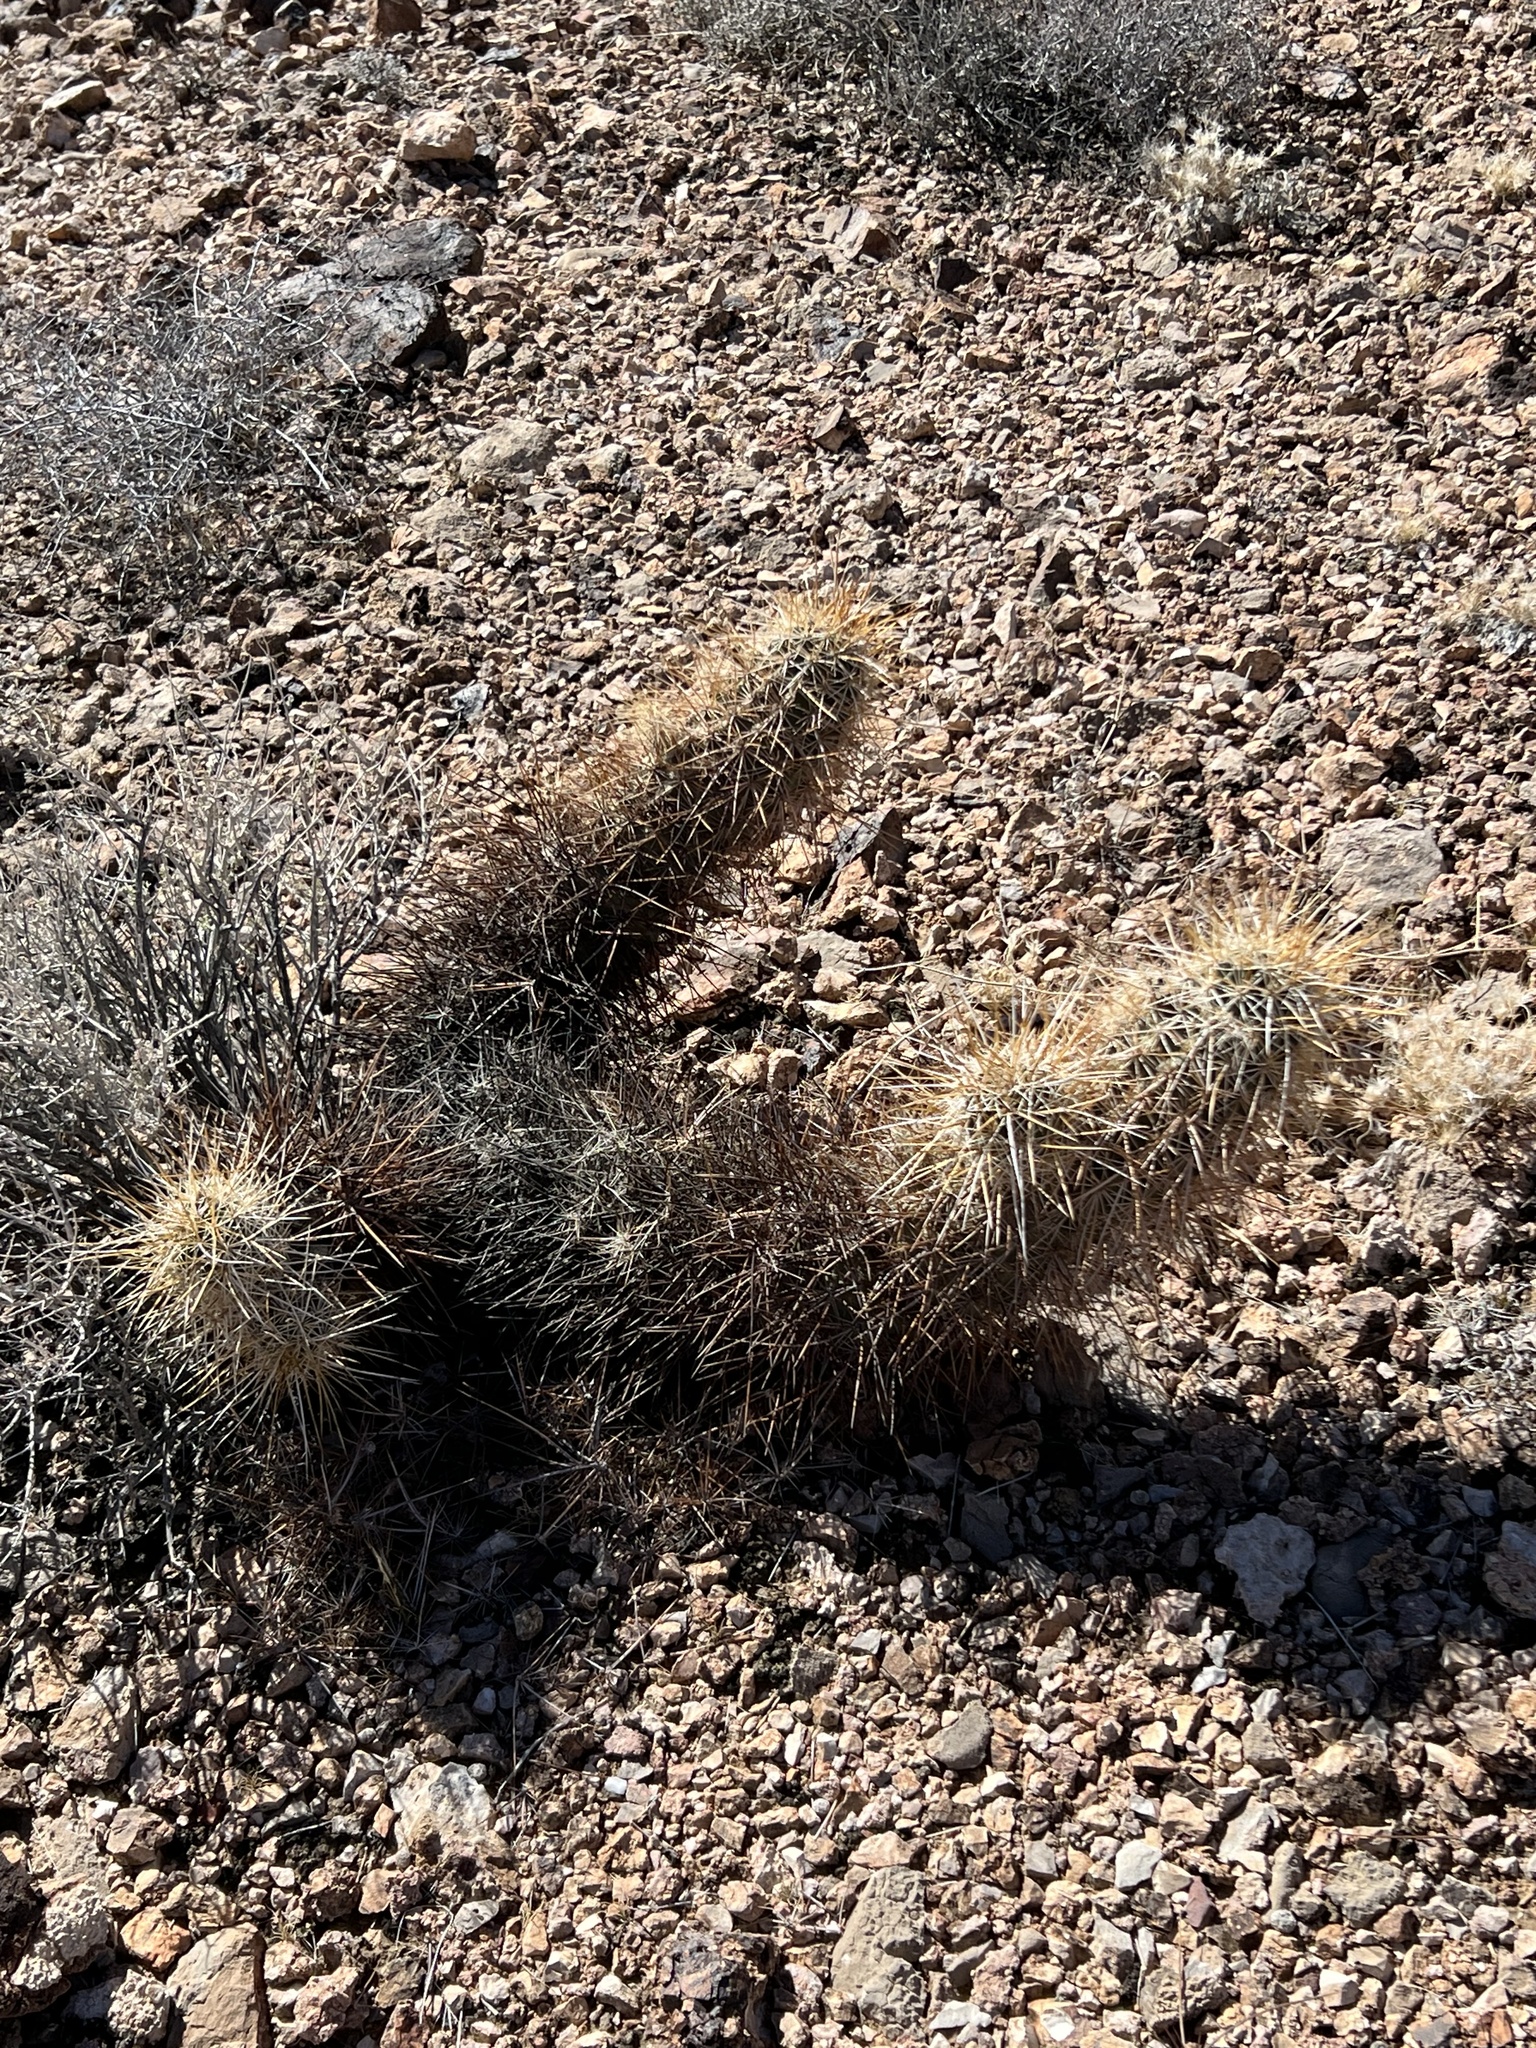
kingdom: Plantae
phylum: Tracheophyta
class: Magnoliopsida
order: Caryophyllales
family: Cactaceae
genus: Echinocereus
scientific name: Echinocereus engelmannii
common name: Engelmann's hedgehog cactus
